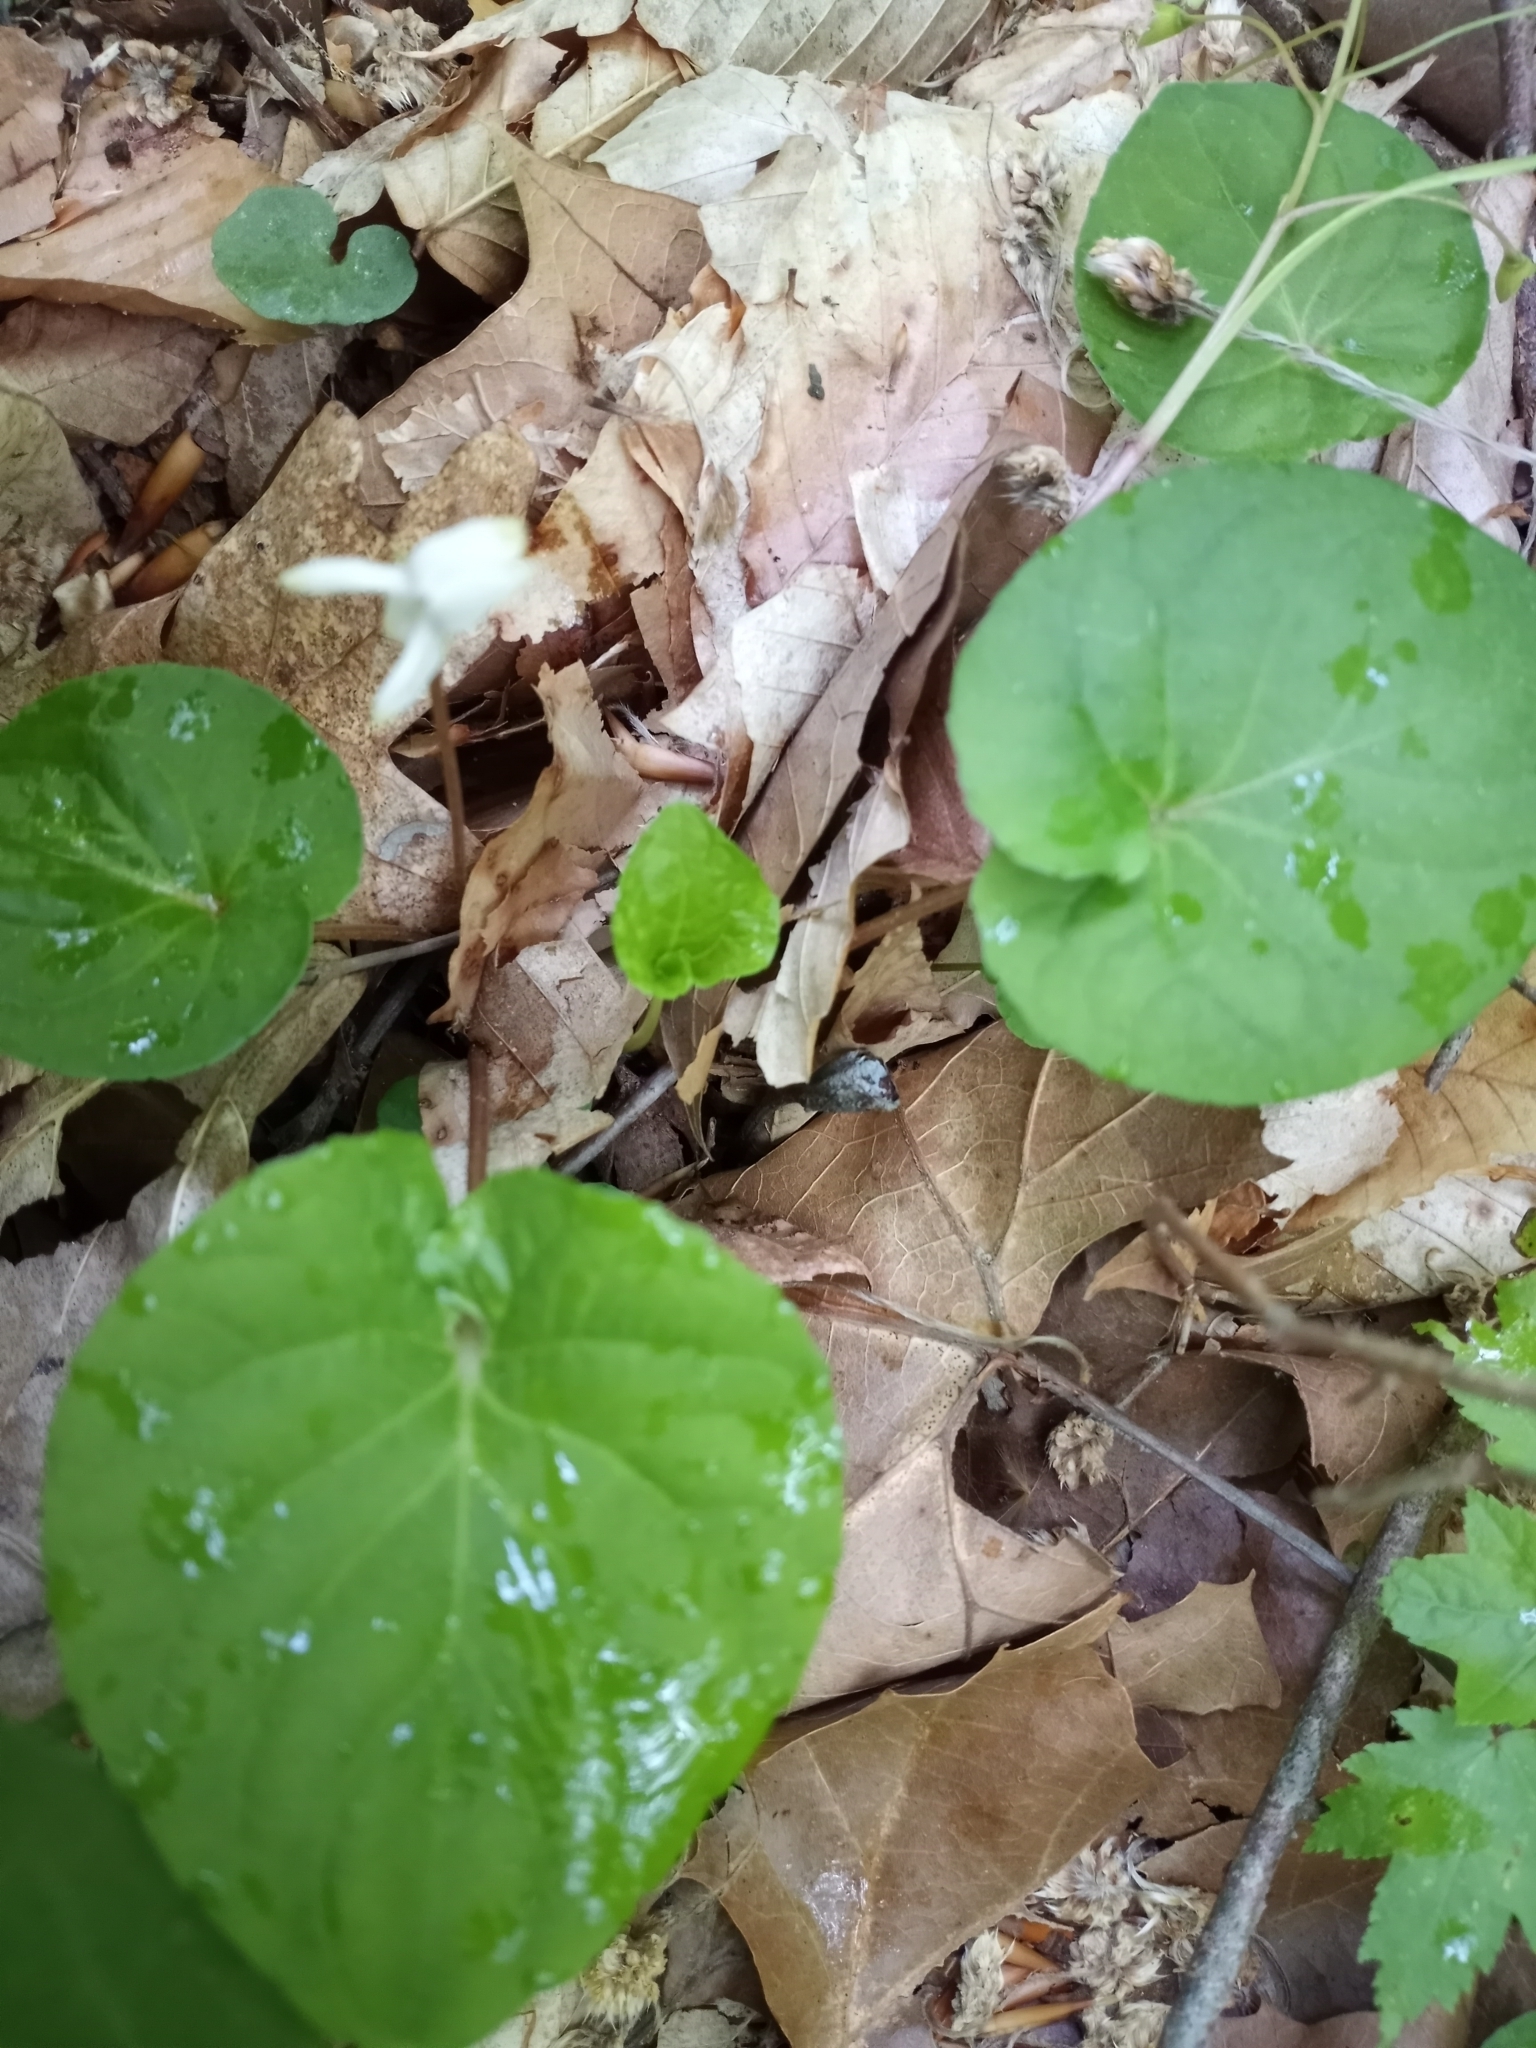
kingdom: Plantae
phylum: Tracheophyta
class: Magnoliopsida
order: Malpighiales
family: Violaceae
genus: Viola
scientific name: Viola blanda
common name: Sweet white violet
